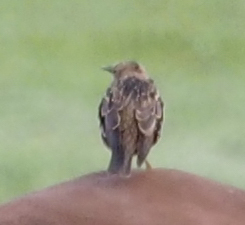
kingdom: Animalia
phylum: Chordata
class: Aves
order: Passeriformes
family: Sturnidae
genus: Sturnus
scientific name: Sturnus vulgaris
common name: Common starling
